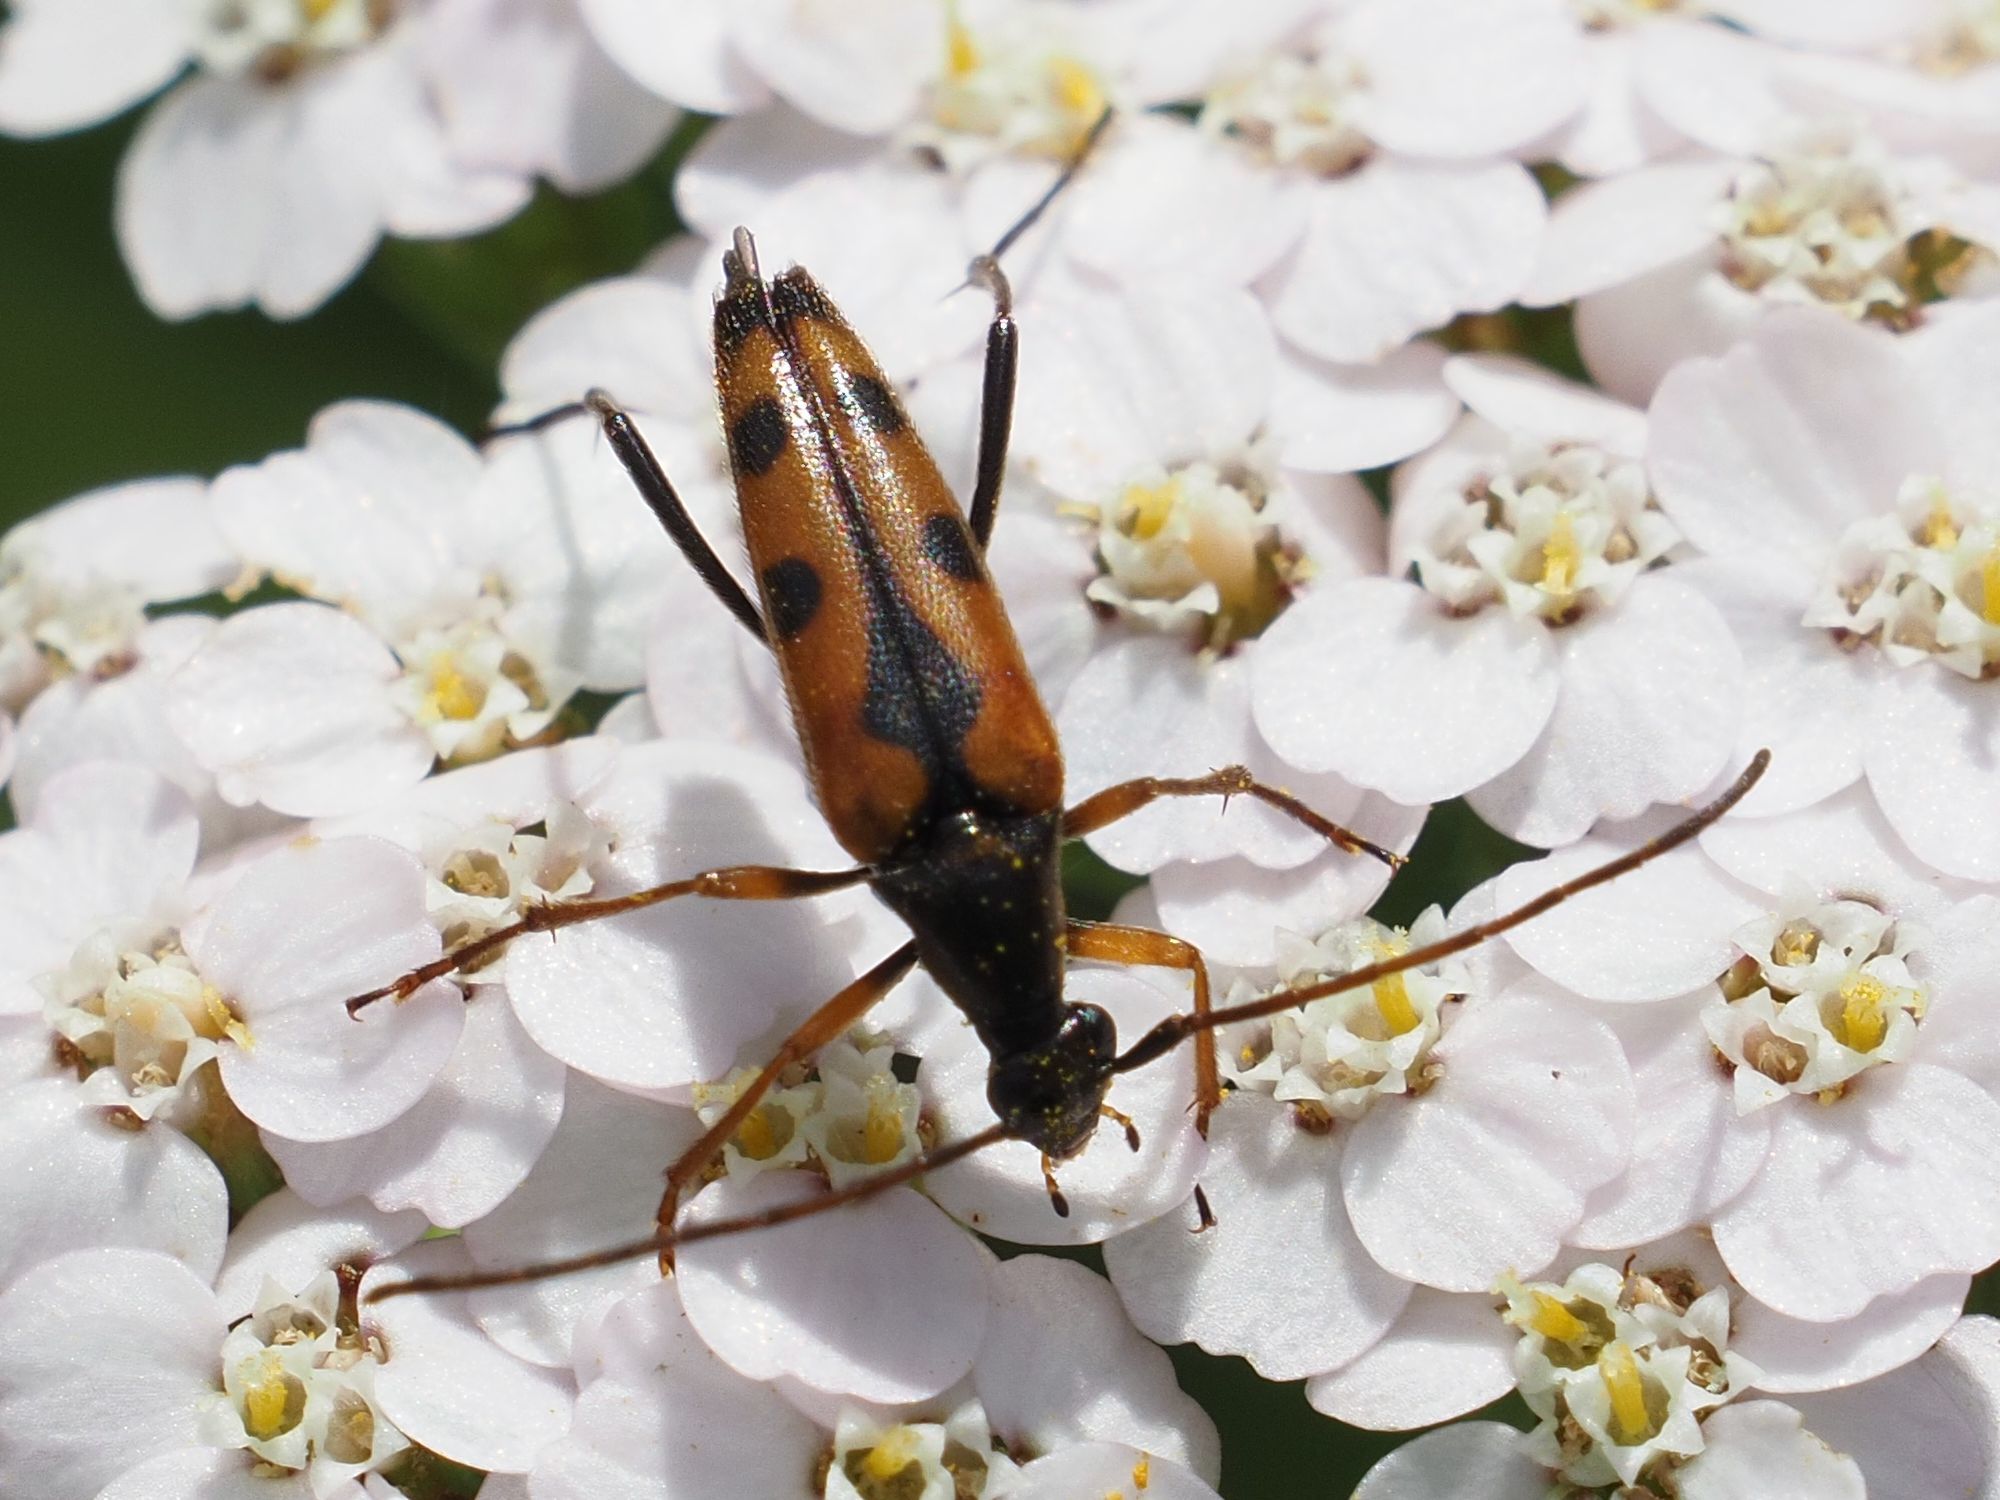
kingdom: Animalia
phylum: Arthropoda
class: Insecta
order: Coleoptera
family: Cerambycidae
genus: Stenurella
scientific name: Stenurella septempunctata
